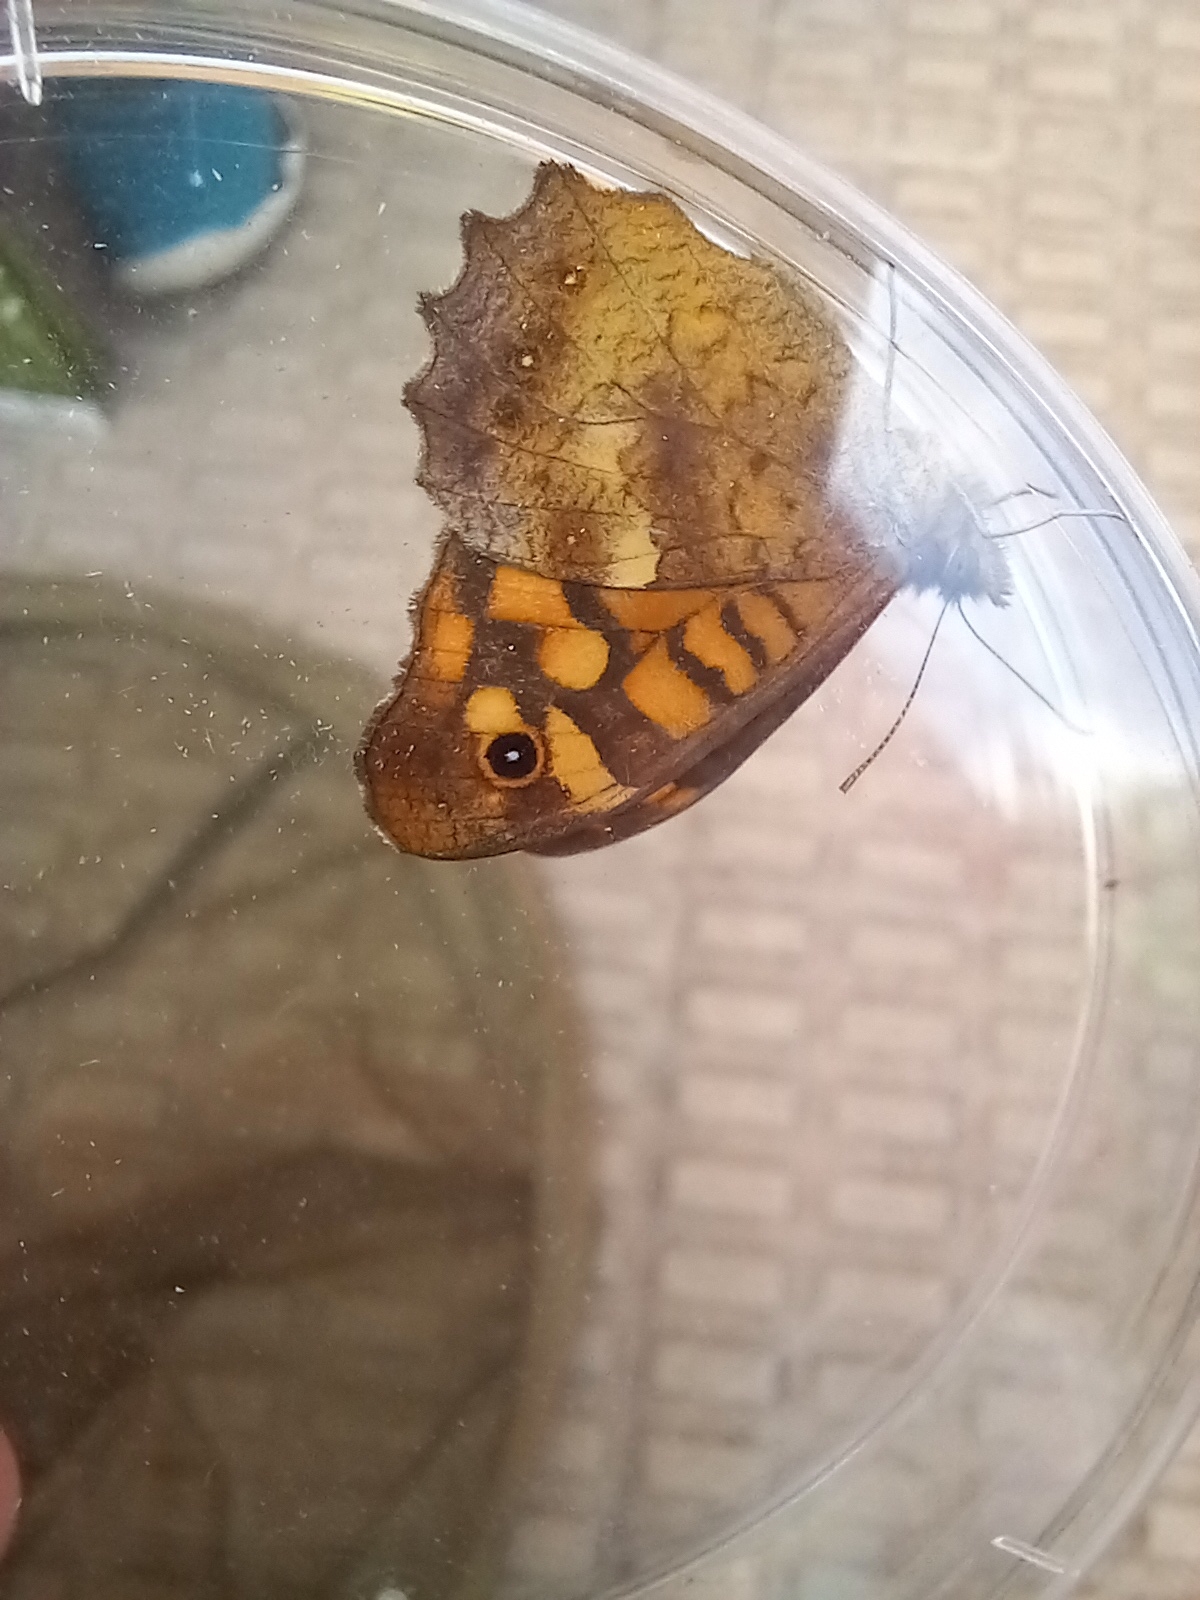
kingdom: Animalia
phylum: Arthropoda
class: Insecta
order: Lepidoptera
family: Nymphalidae
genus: Pararge
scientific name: Pararge aegeria
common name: Speckled wood
